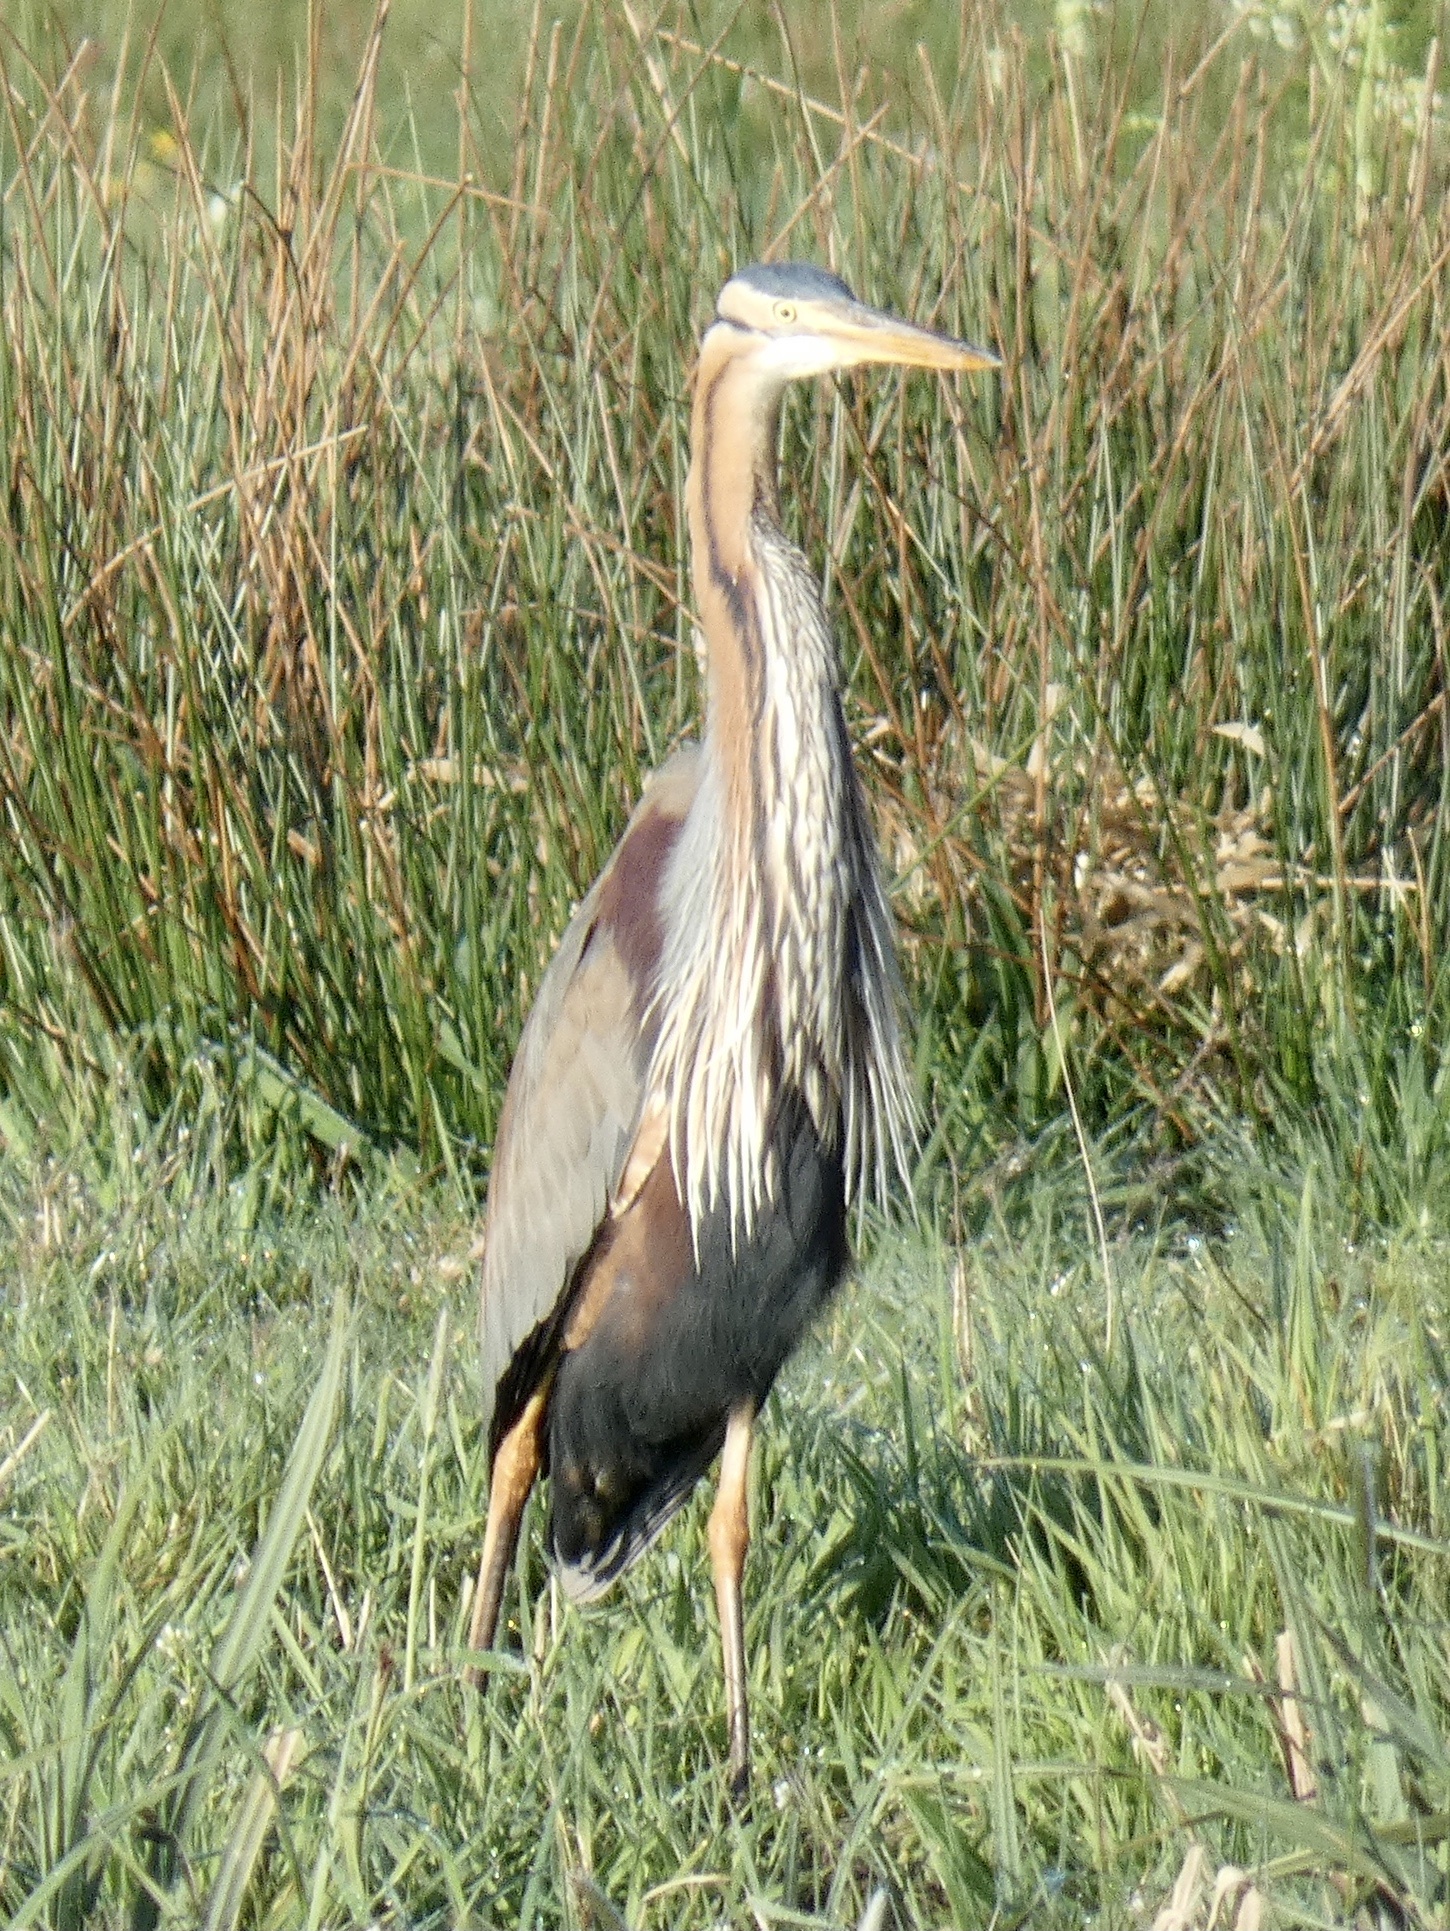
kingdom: Animalia
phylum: Chordata
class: Aves
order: Pelecaniformes
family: Ardeidae
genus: Ardea
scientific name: Ardea purpurea
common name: Purple heron
